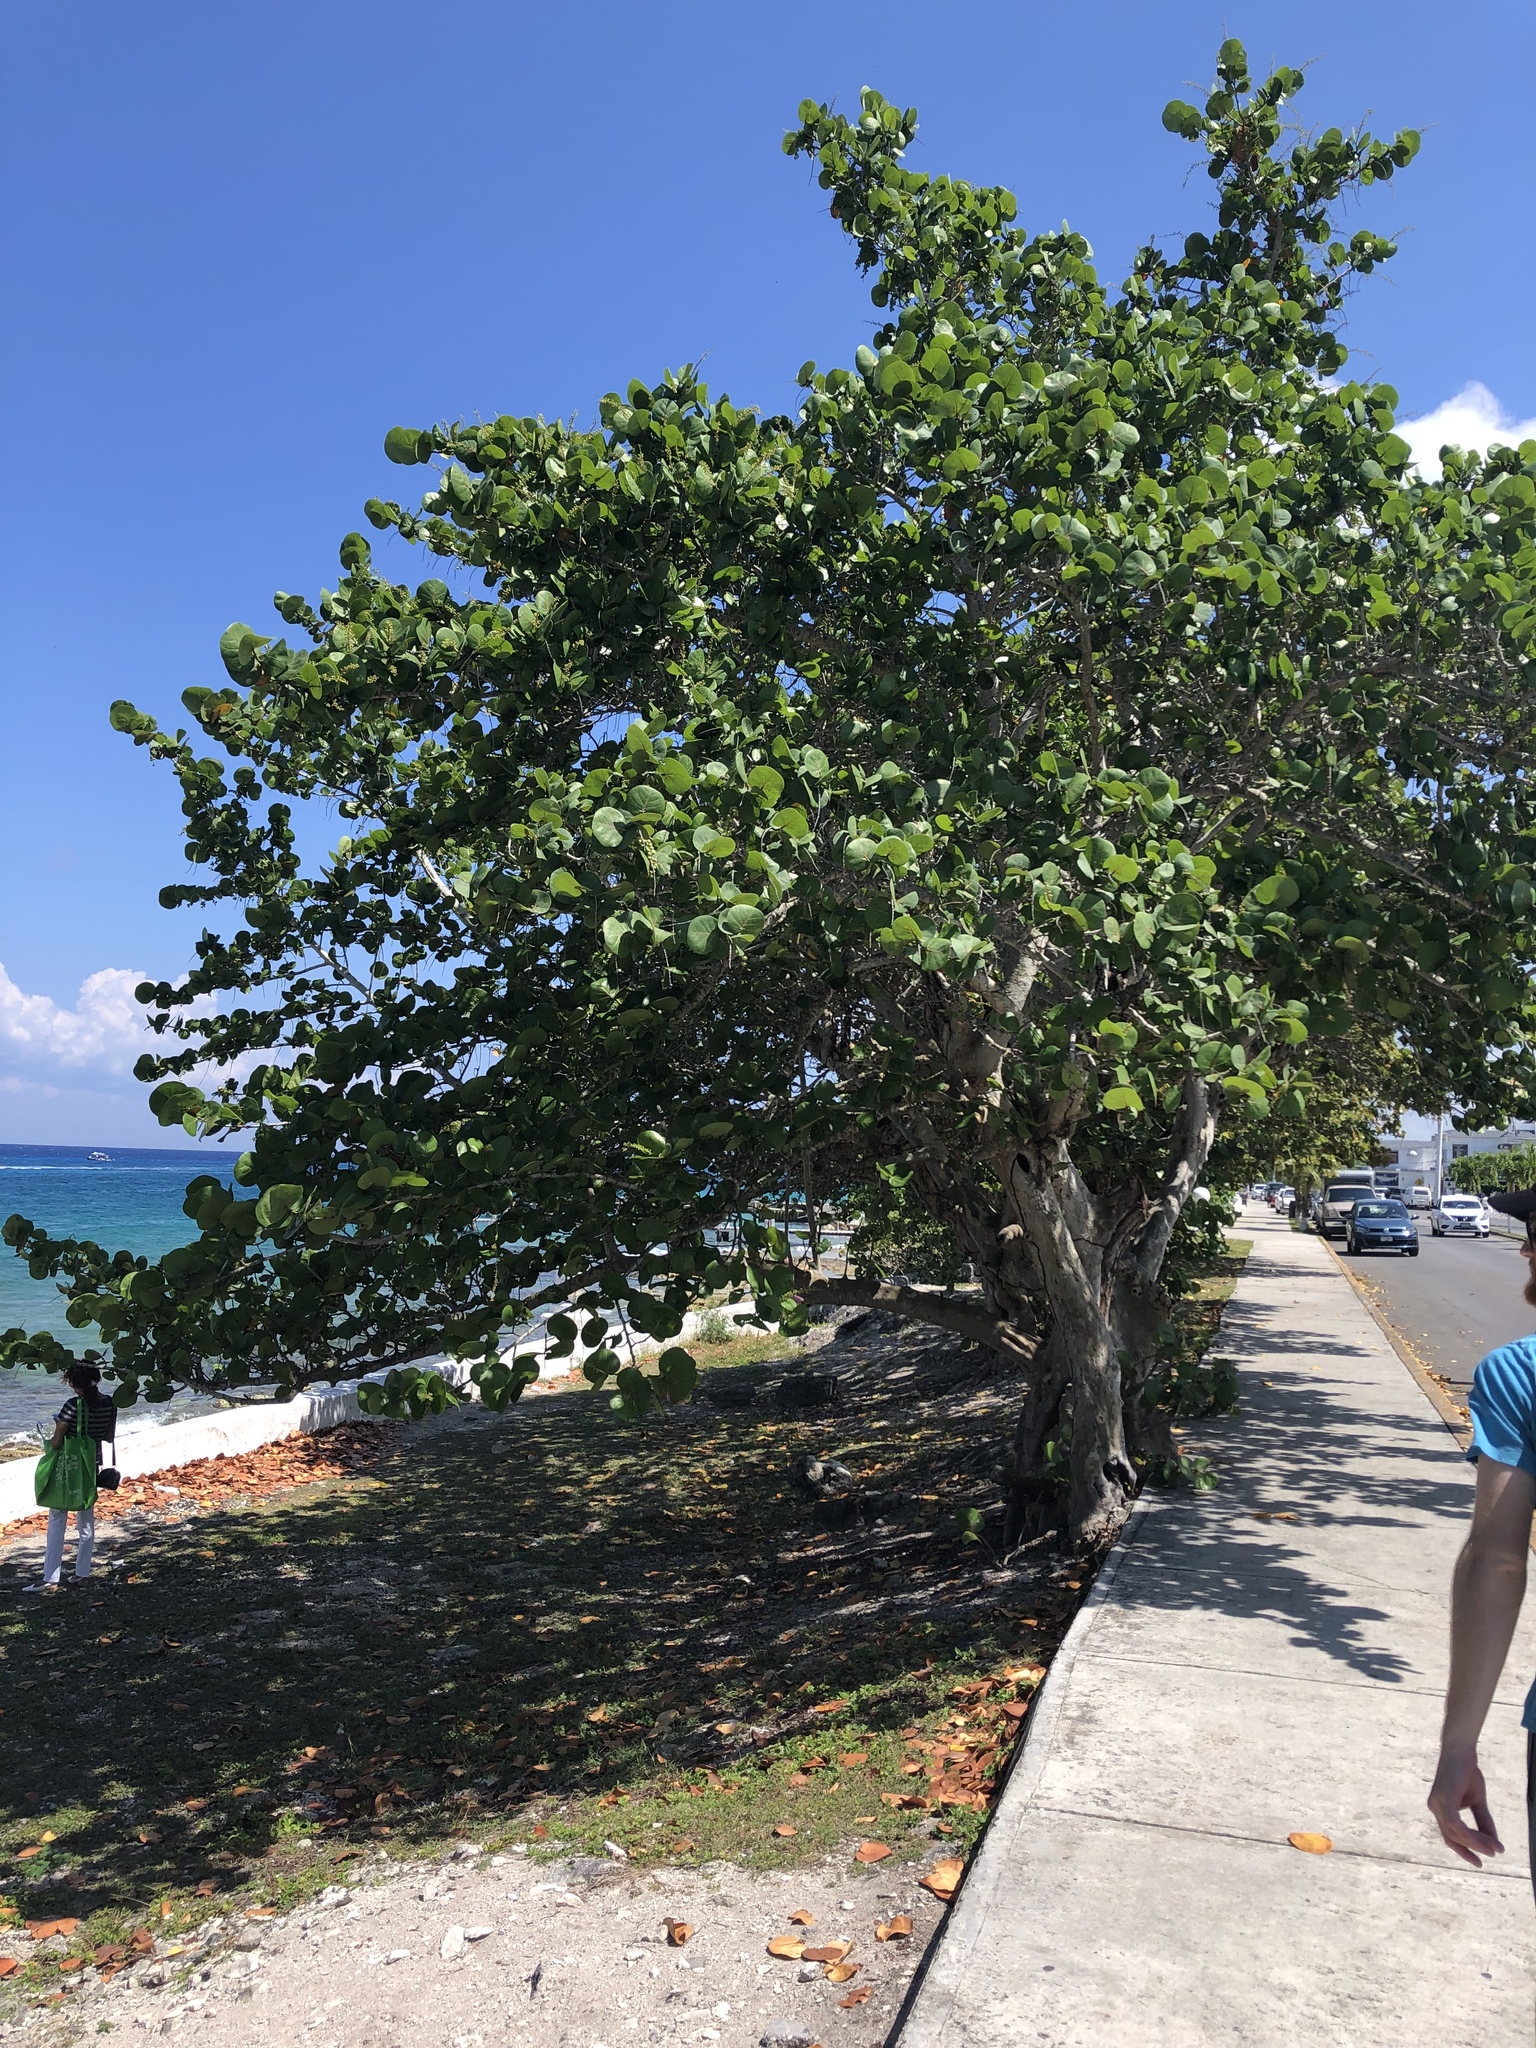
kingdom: Plantae
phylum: Tracheophyta
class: Magnoliopsida
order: Caryophyllales
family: Polygonaceae
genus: Coccoloba
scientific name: Coccoloba uvifera
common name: Seagrape
